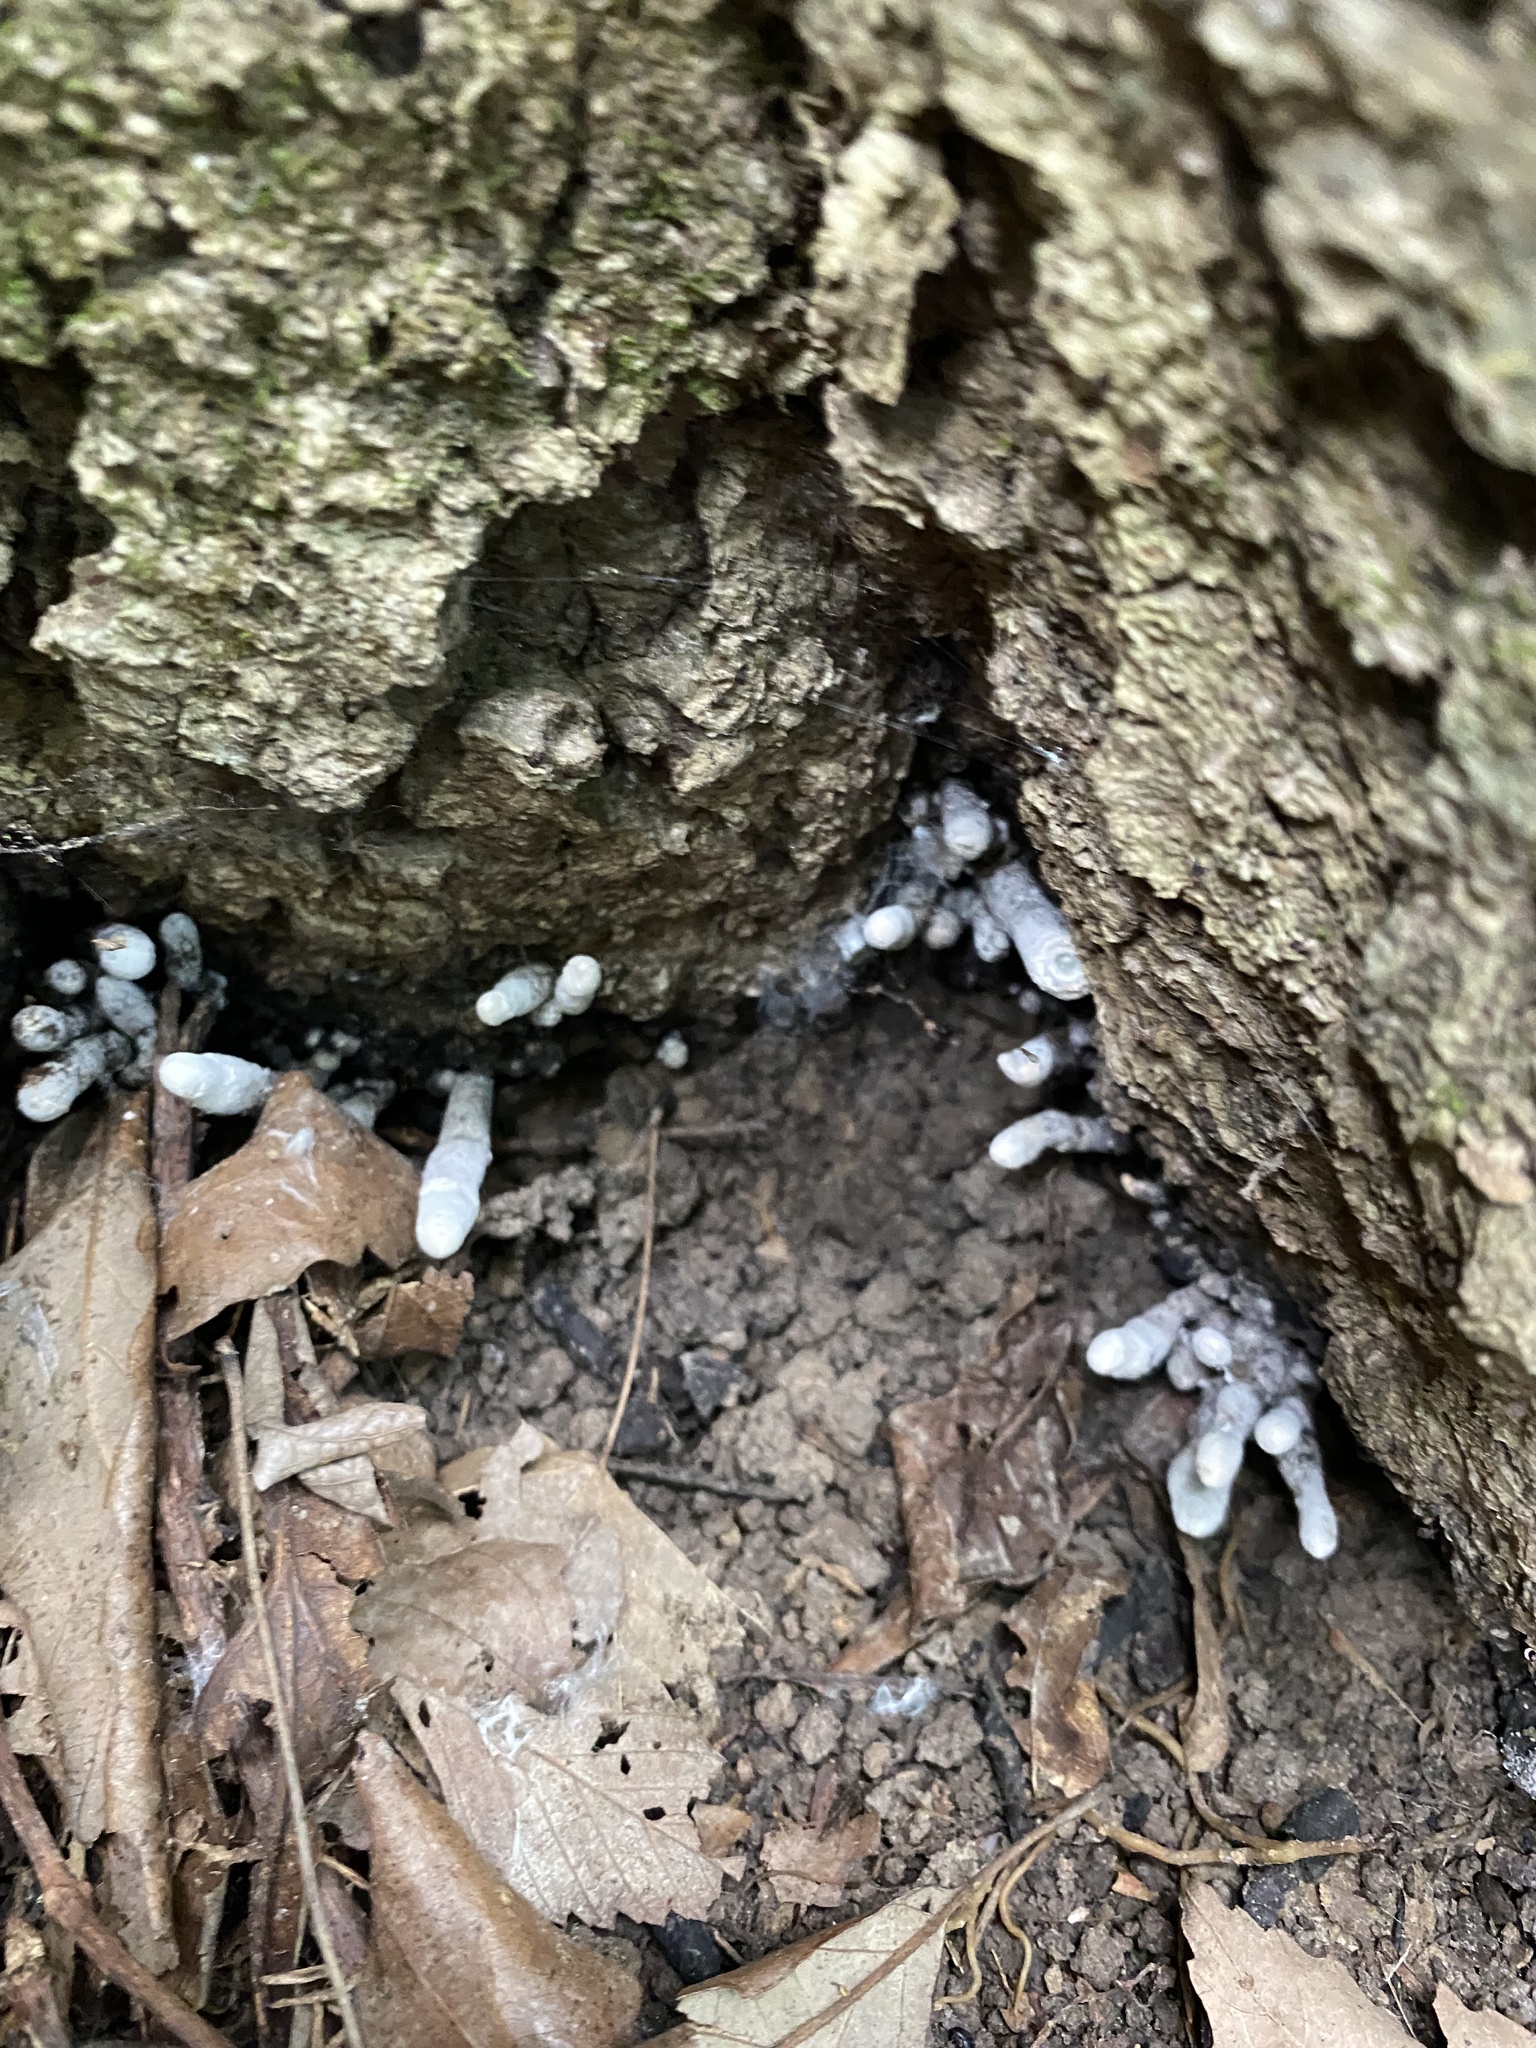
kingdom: Fungi
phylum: Ascomycota
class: Sordariomycetes
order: Xylariales
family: Xylariaceae
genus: Xylaria
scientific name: Xylaria polymorpha
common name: Dead man's fingers
